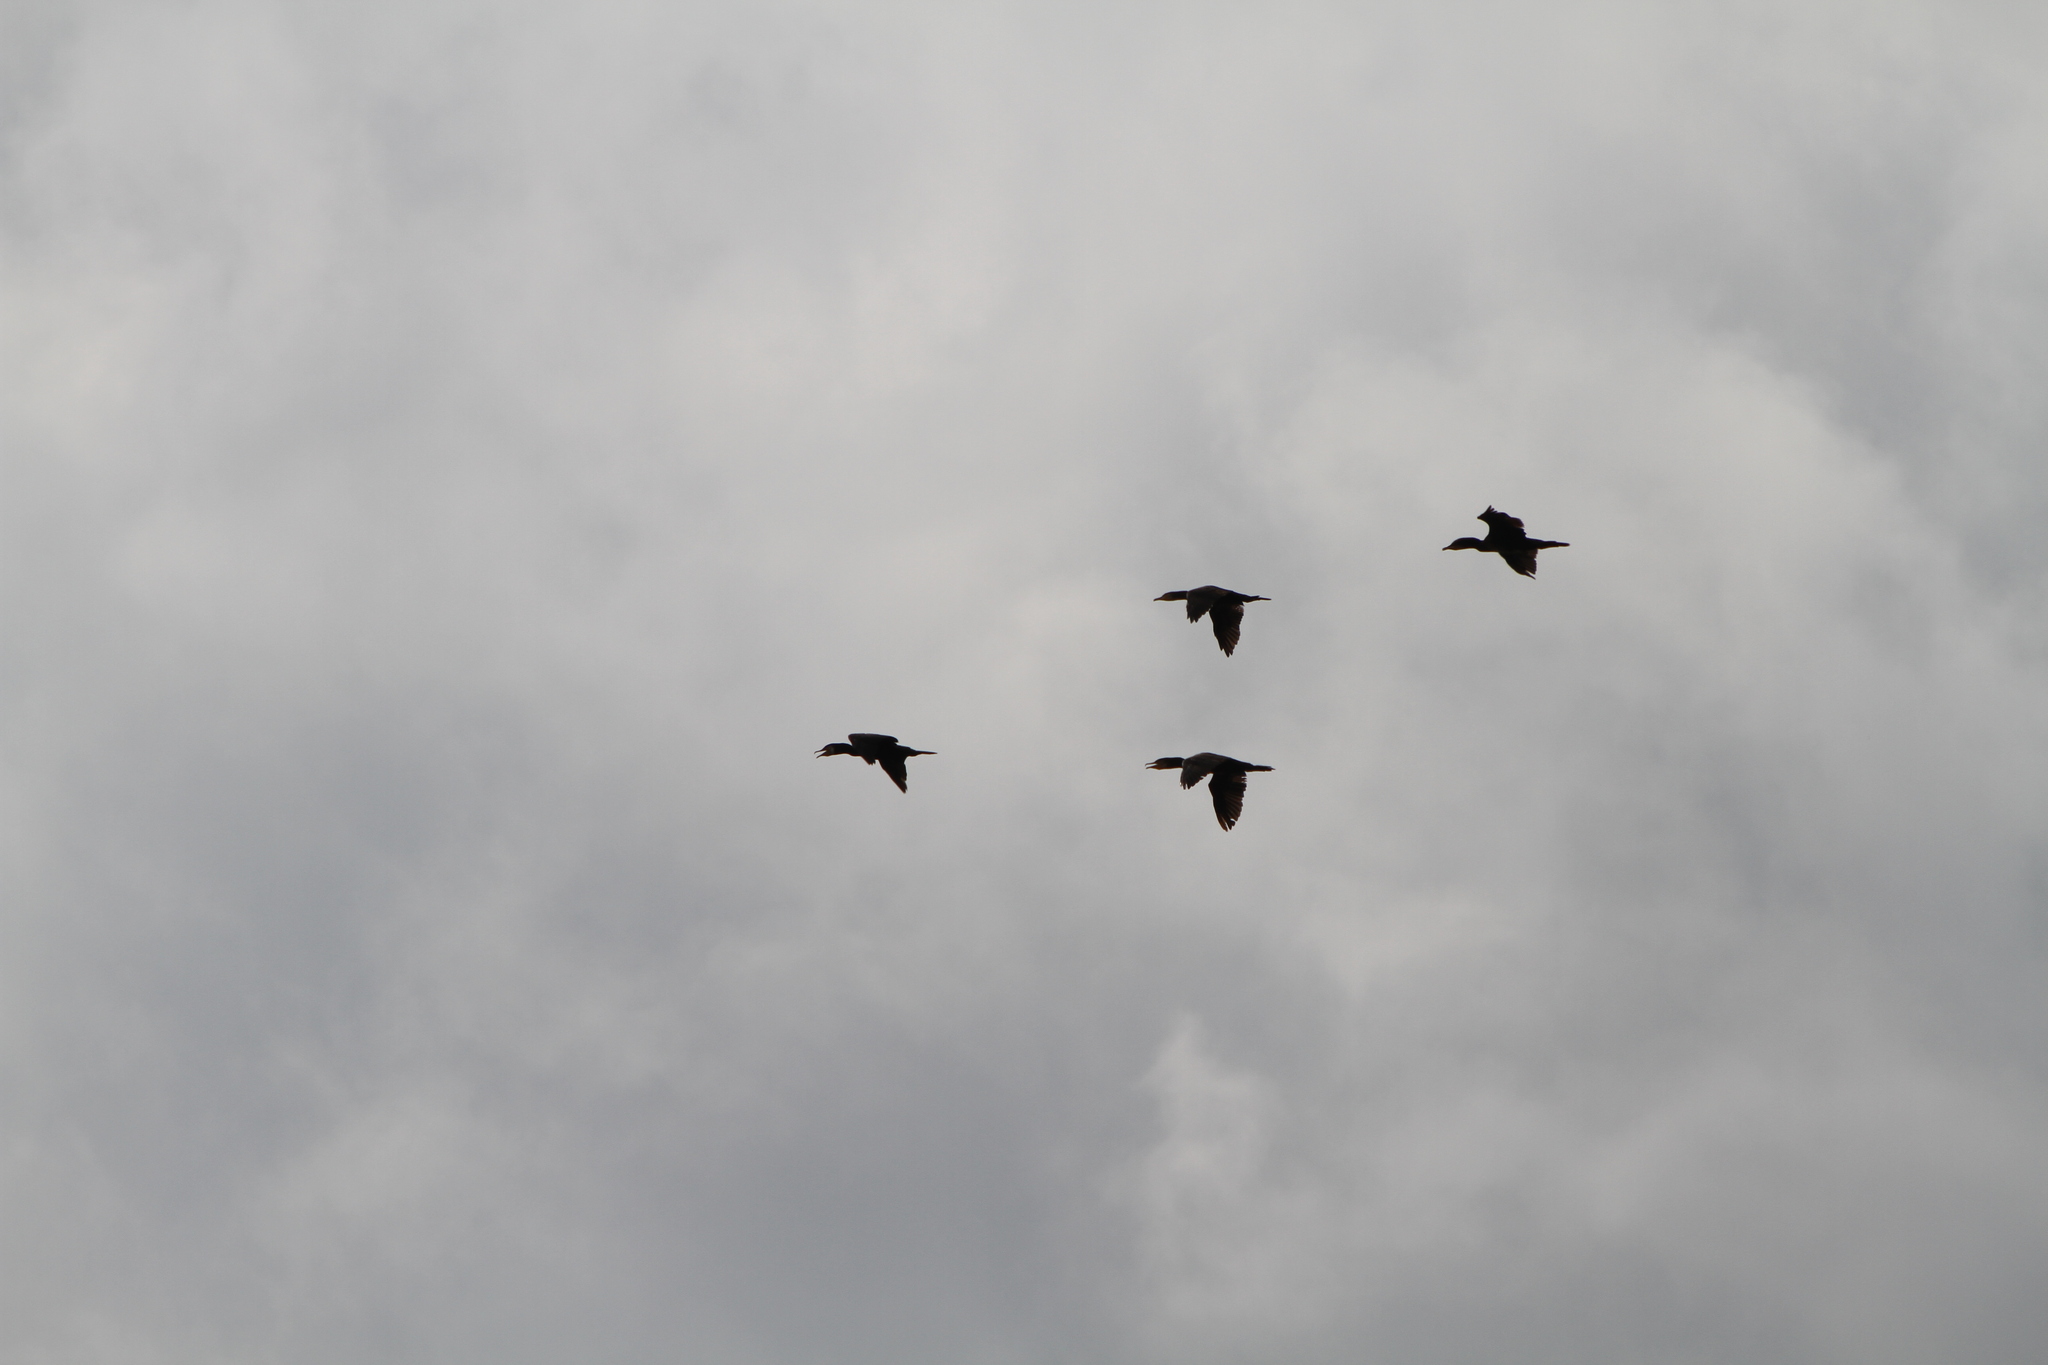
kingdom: Animalia
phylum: Chordata
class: Aves
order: Suliformes
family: Phalacrocoracidae
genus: Phalacrocorax
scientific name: Phalacrocorax carbo
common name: Great cormorant
